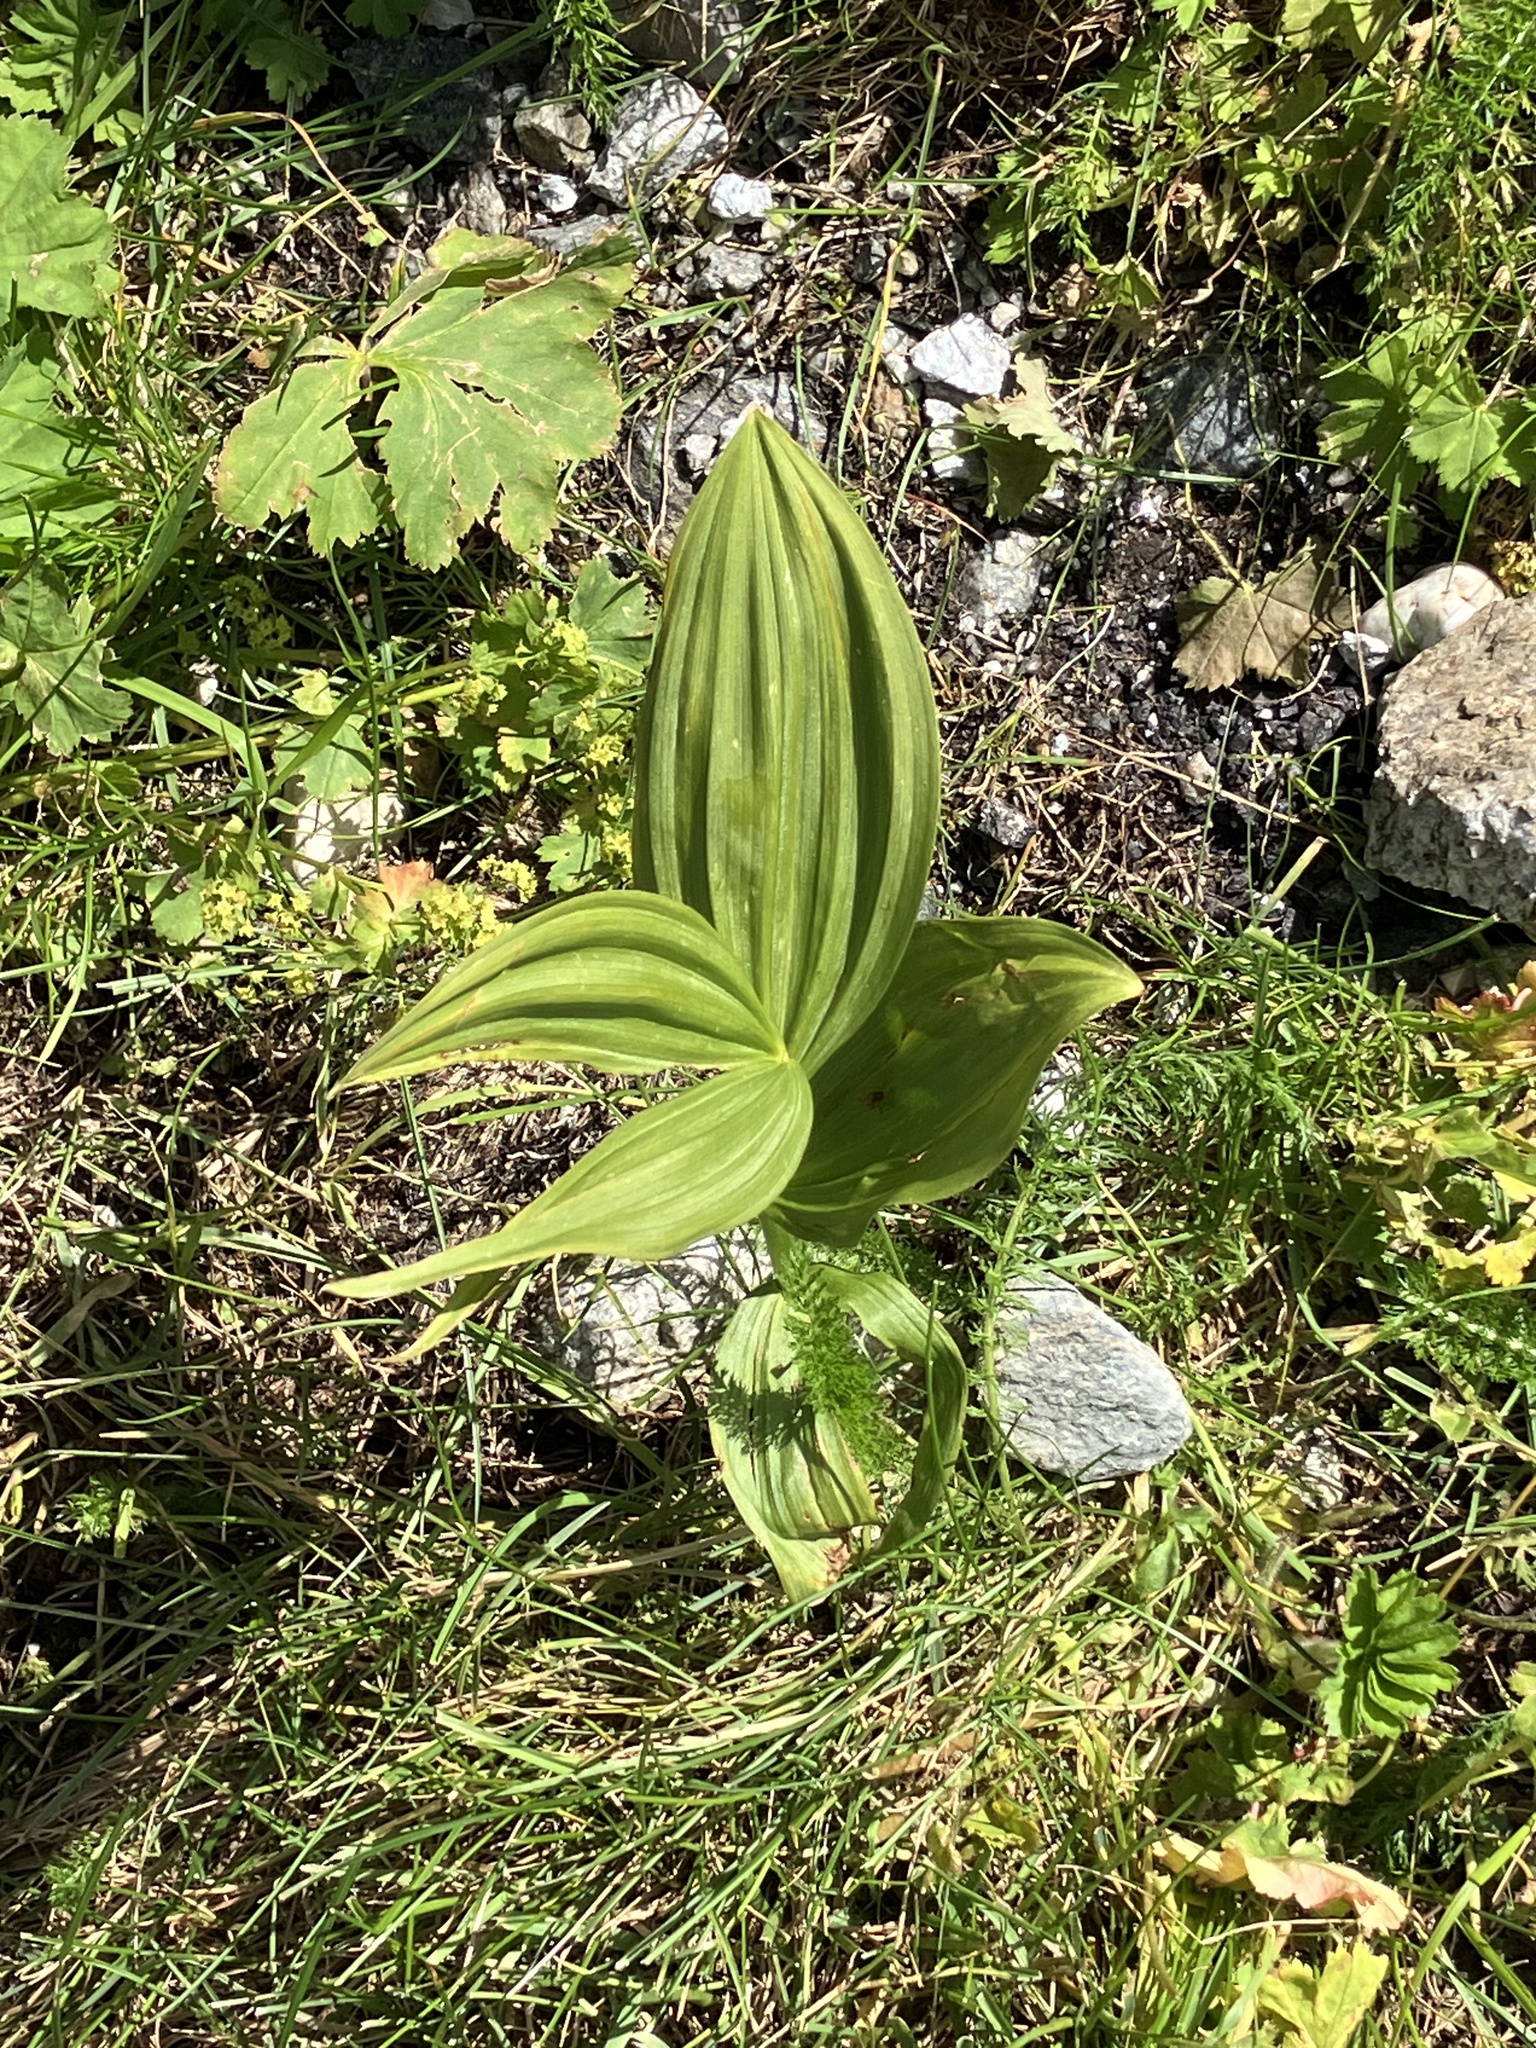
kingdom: Plantae
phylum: Tracheophyta
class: Liliopsida
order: Liliales
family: Melanthiaceae
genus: Veratrum
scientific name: Veratrum album
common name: White veratrum
